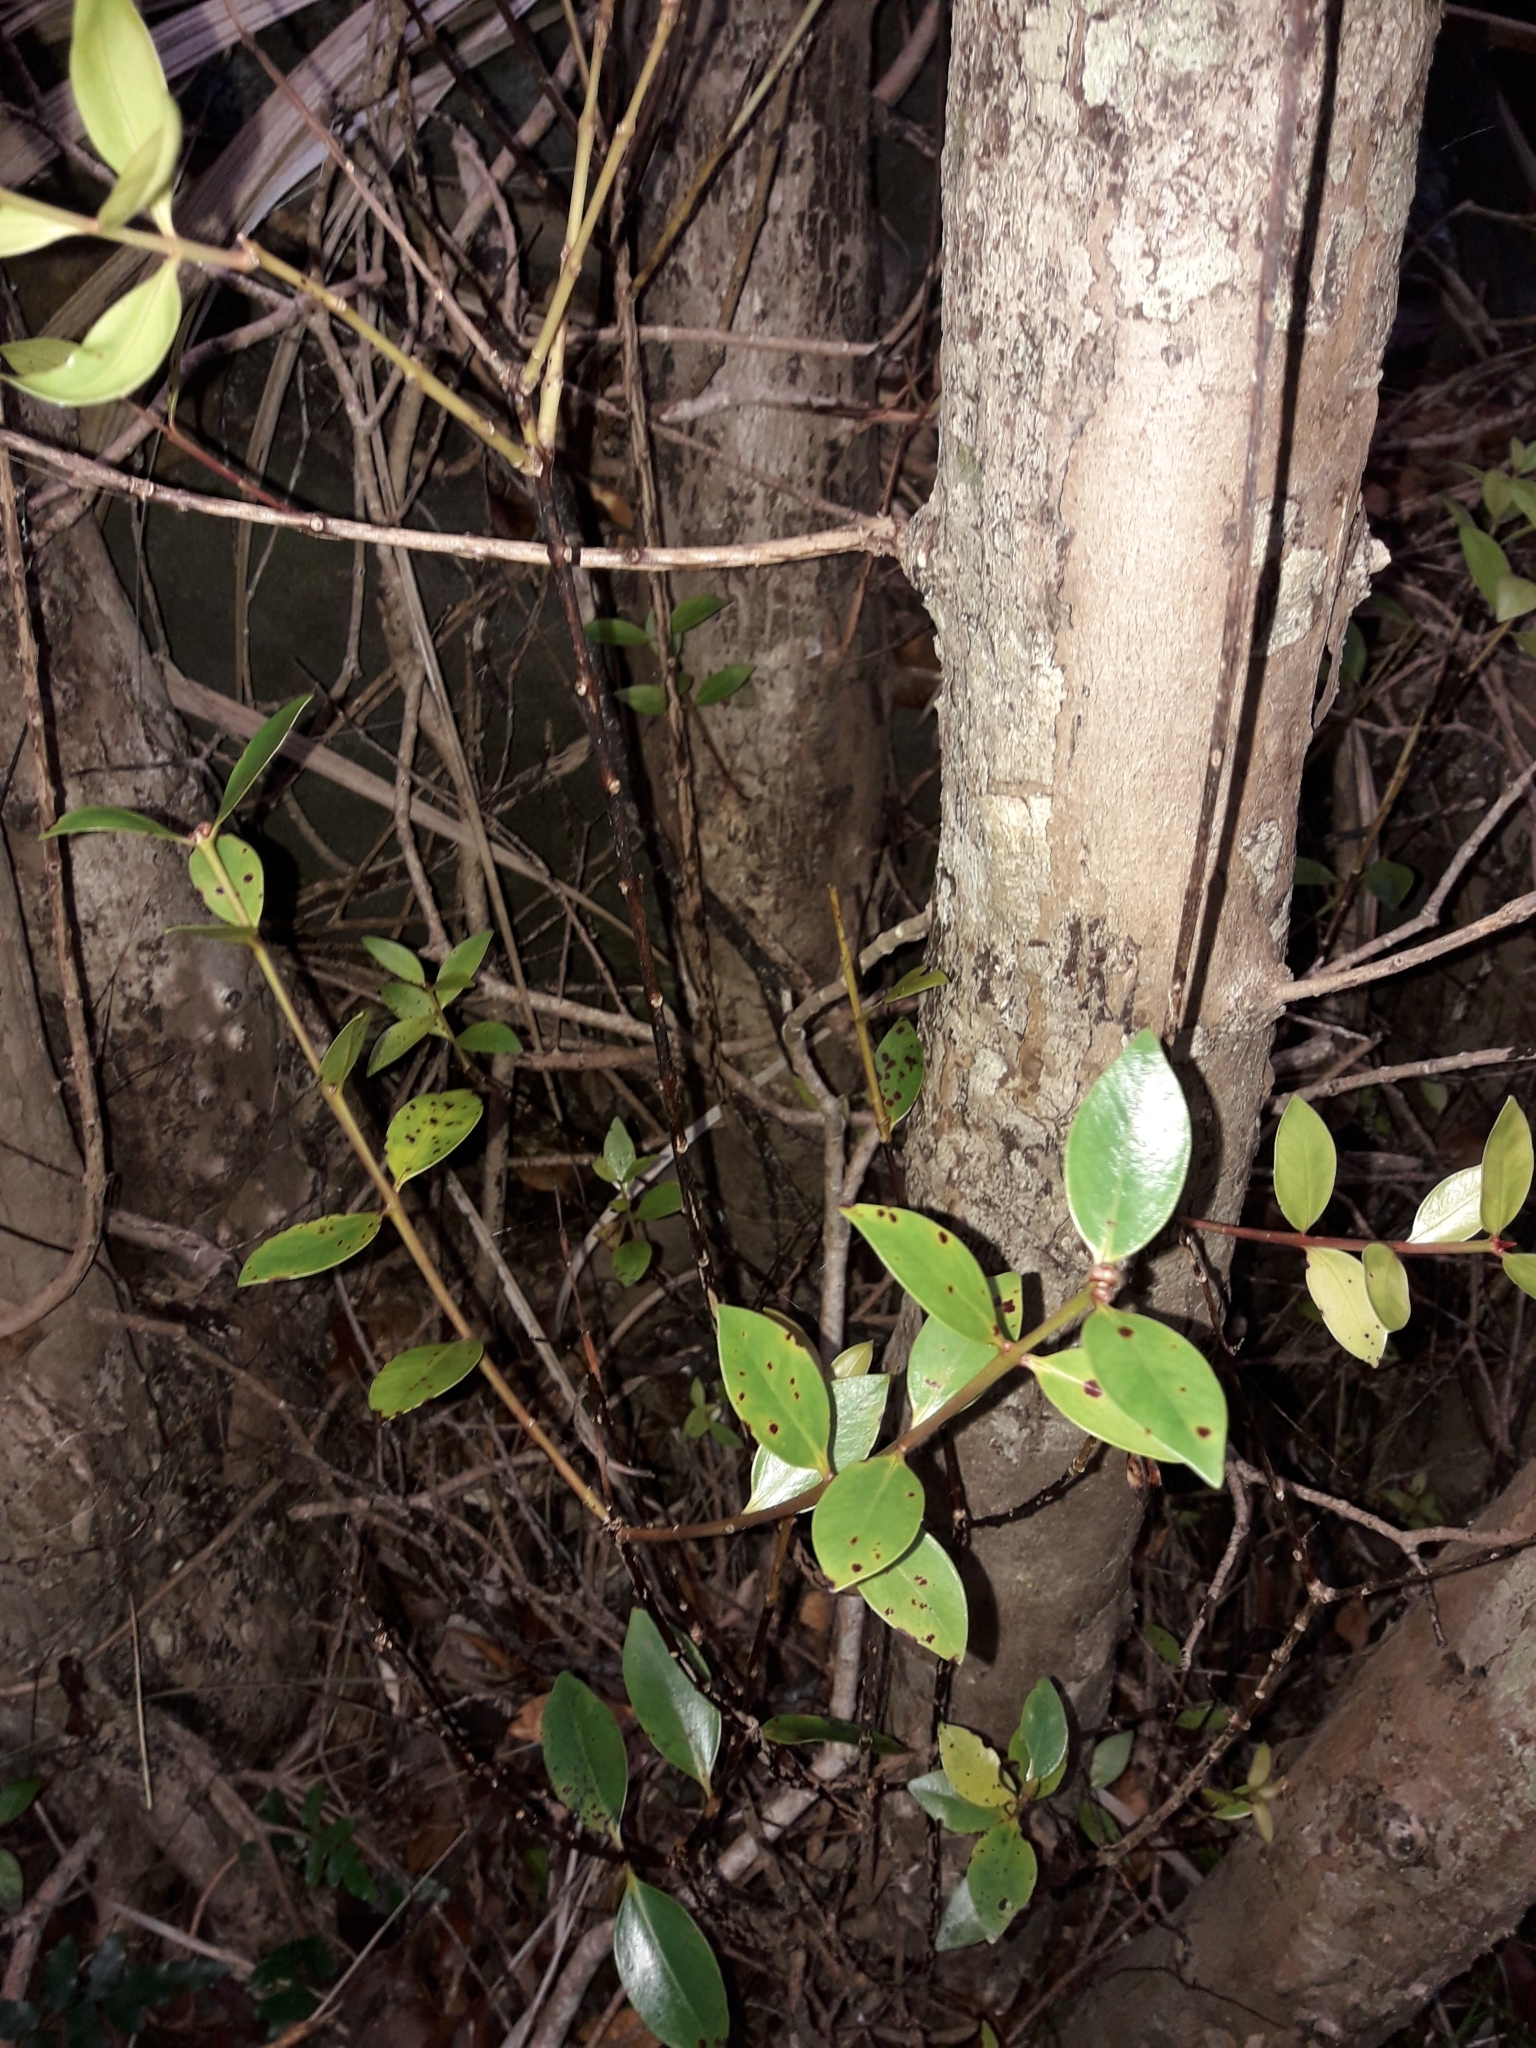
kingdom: Plantae
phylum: Tracheophyta
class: Magnoliopsida
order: Myrtales
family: Myrtaceae
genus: Metrosideros
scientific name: Metrosideros sclerocarpa
